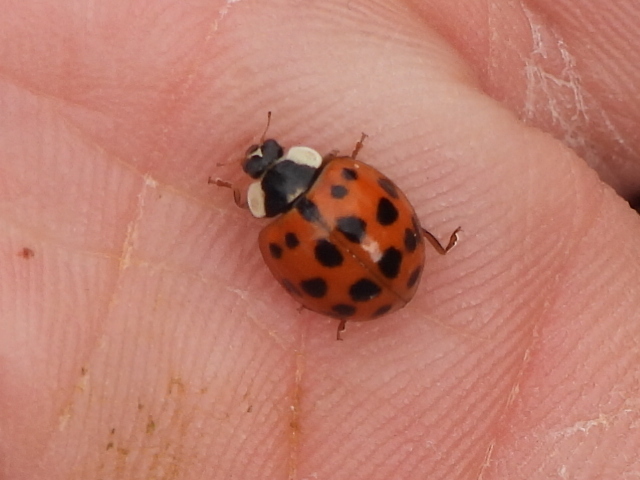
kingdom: Animalia
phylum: Arthropoda
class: Insecta
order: Coleoptera
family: Coccinellidae
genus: Harmonia
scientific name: Harmonia axyridis
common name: Harlequin ladybird
